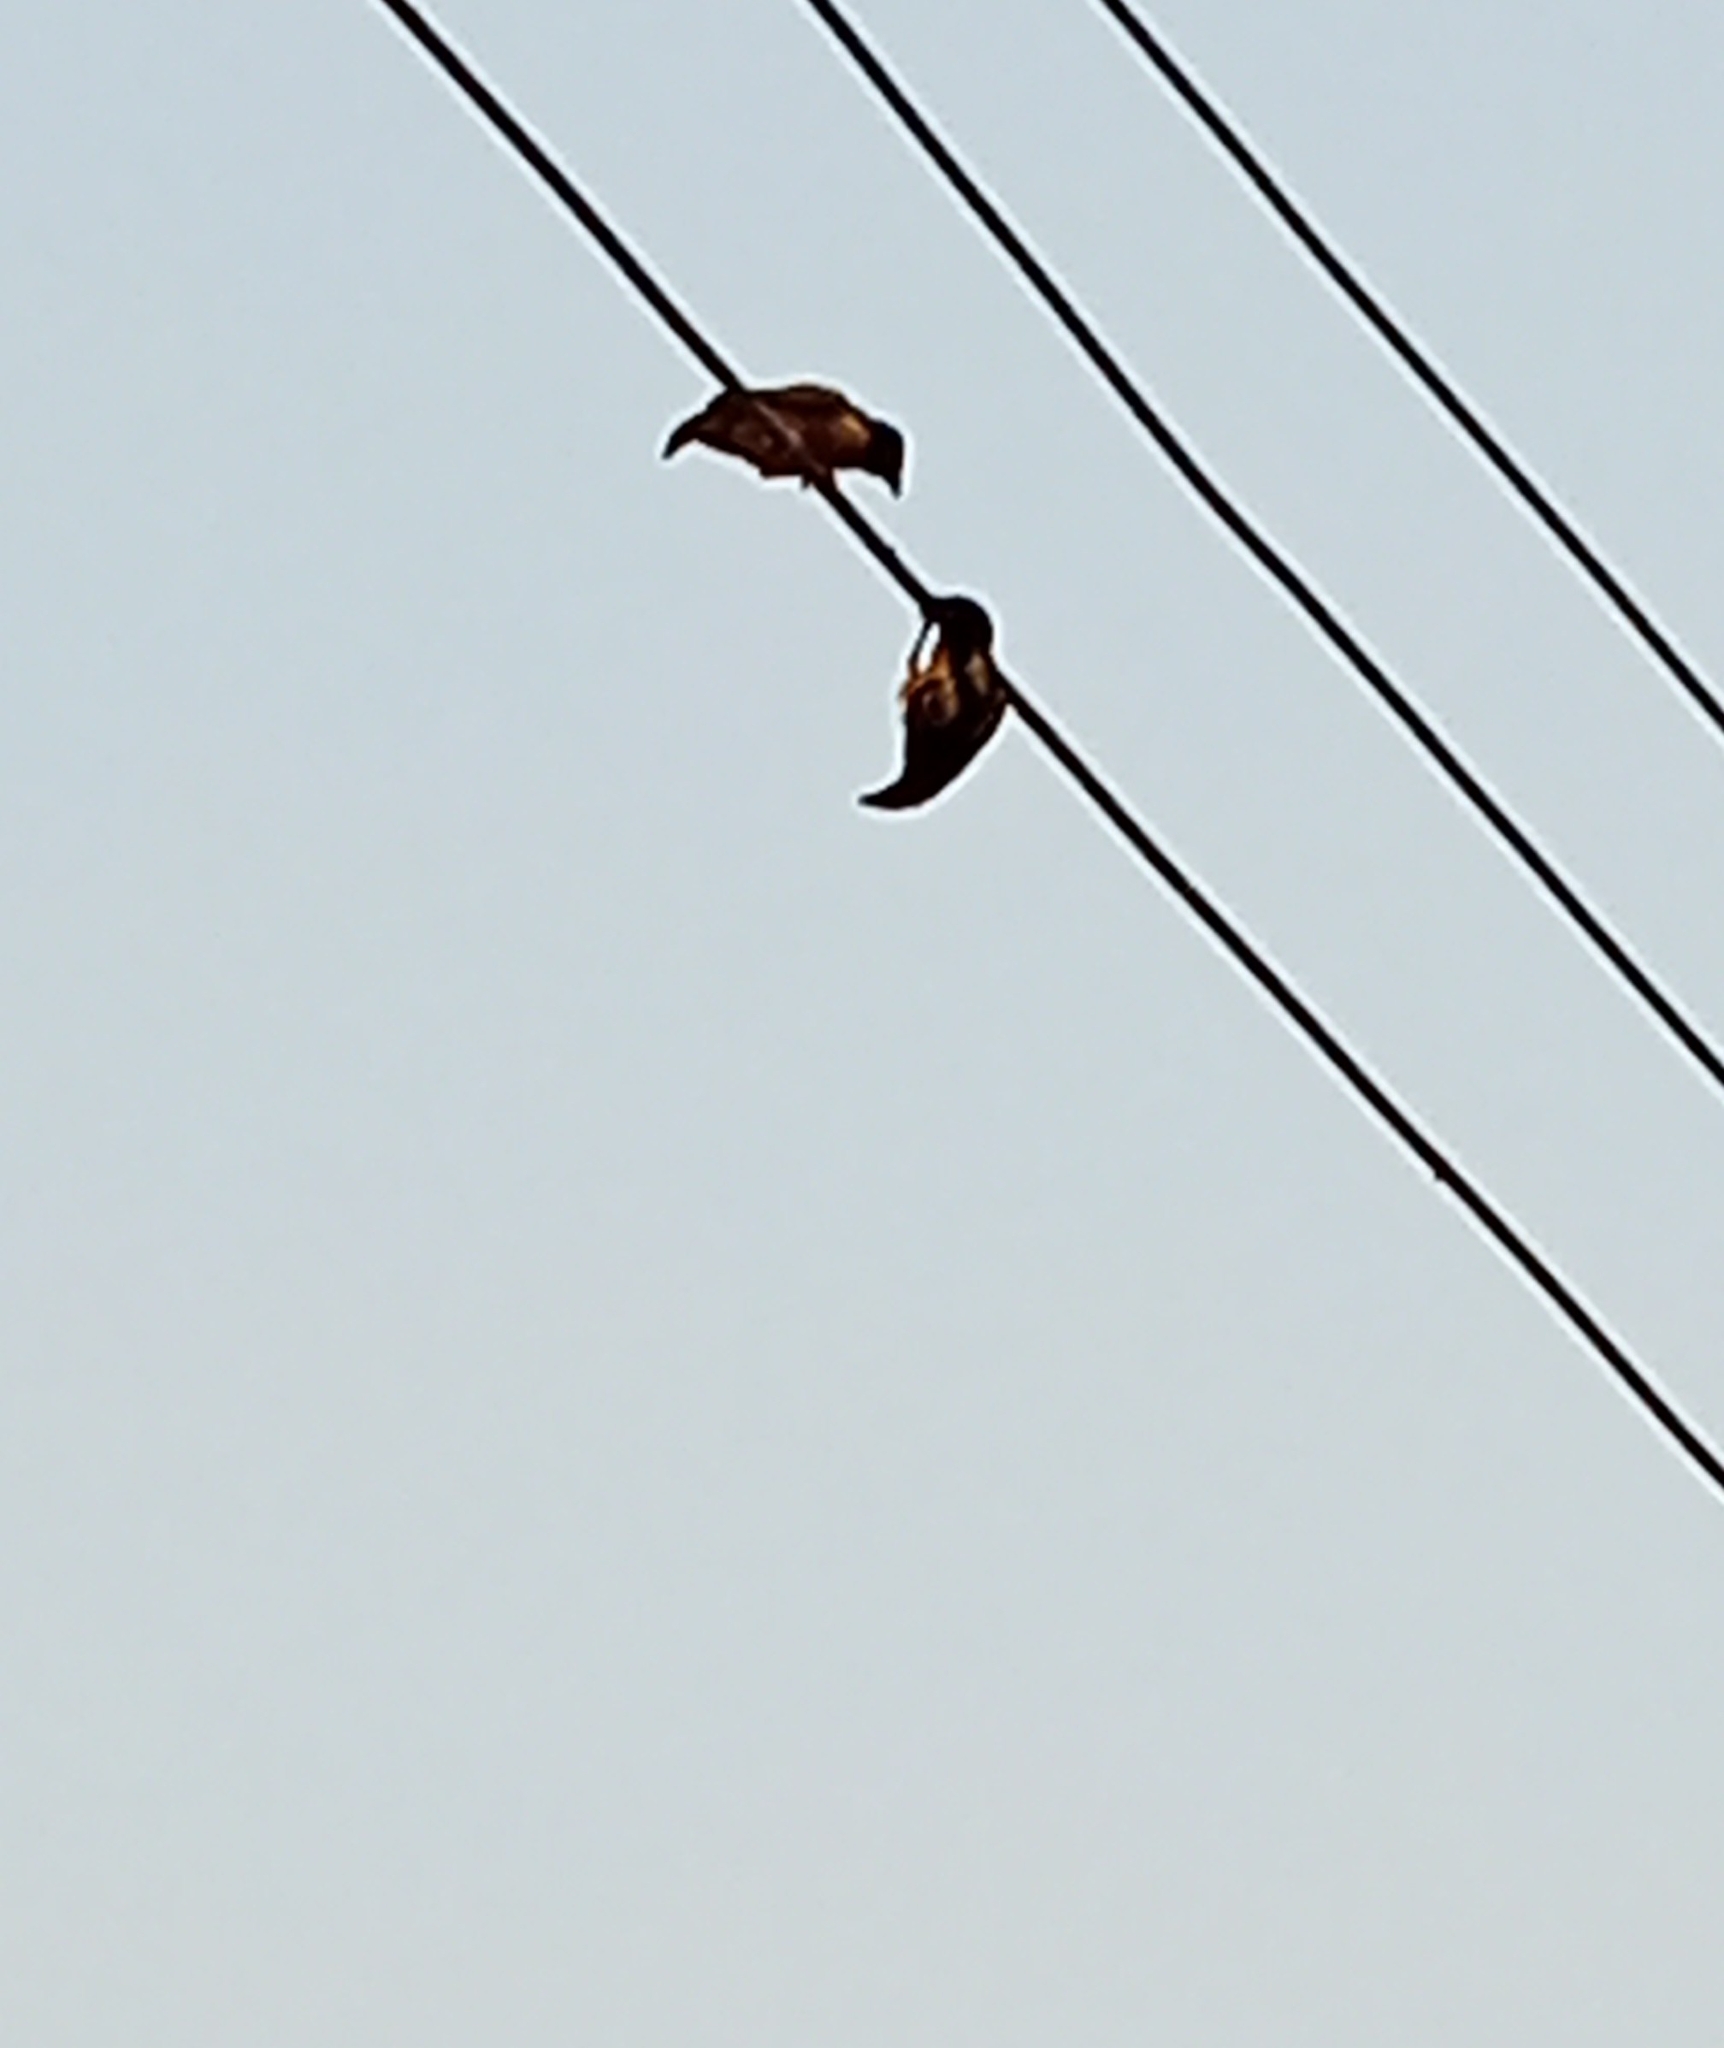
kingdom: Animalia
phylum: Chordata
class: Aves
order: Passeriformes
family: Ploceidae
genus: Ploceus
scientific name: Ploceus cucullatus
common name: Village weaver
